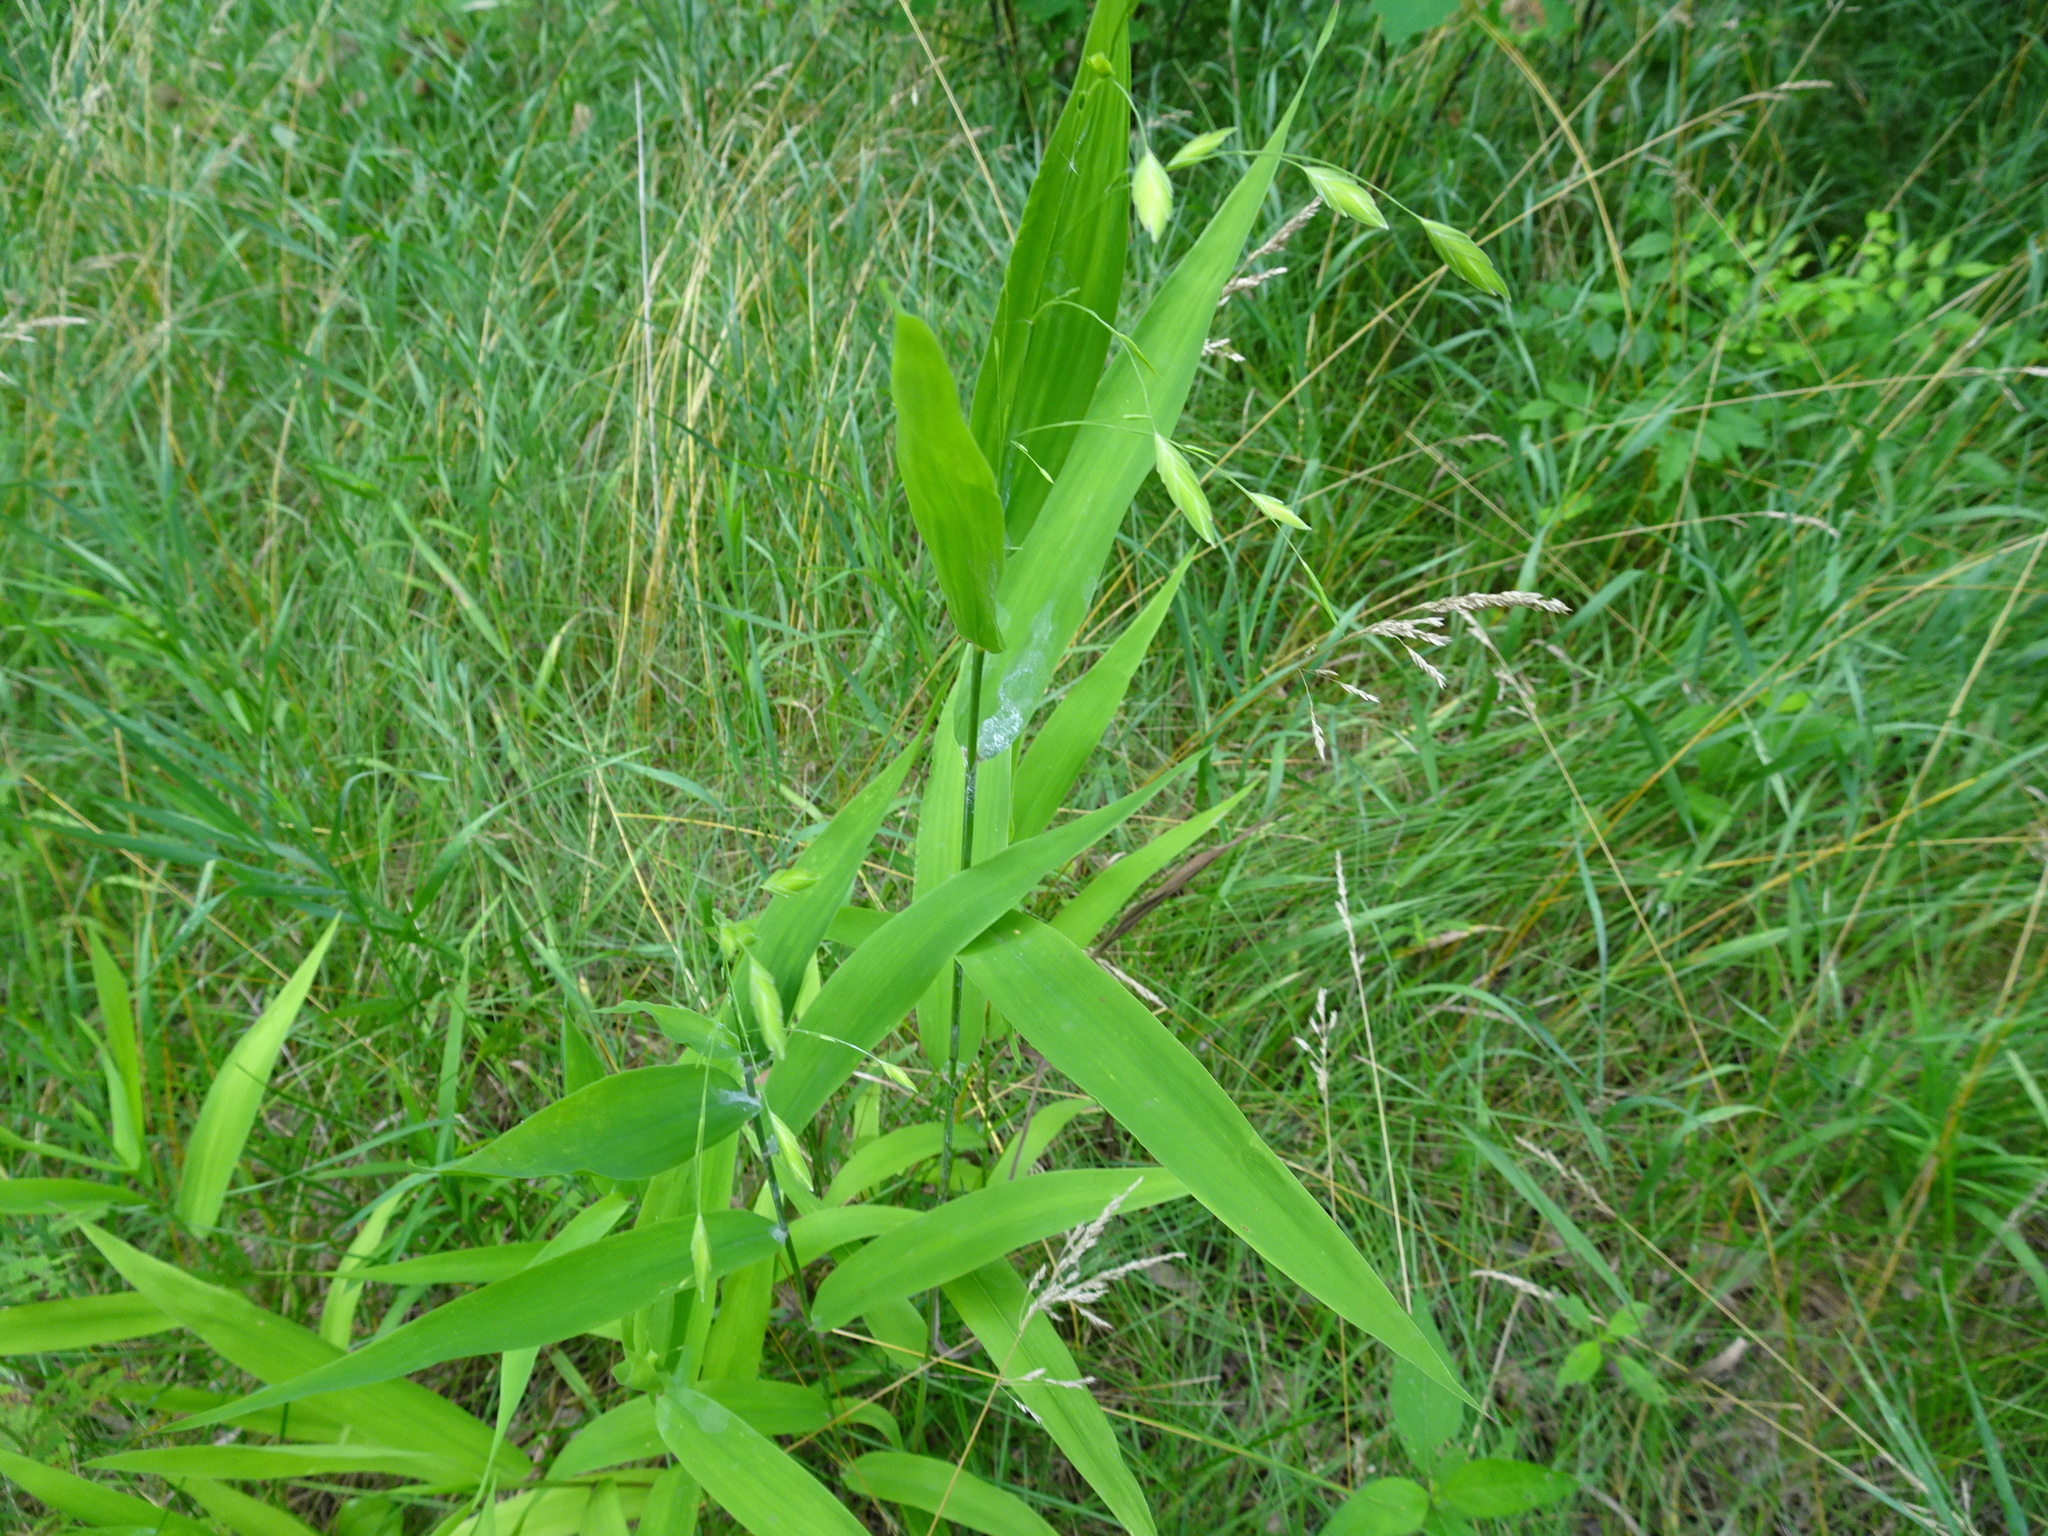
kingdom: Plantae
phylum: Tracheophyta
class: Liliopsida
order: Poales
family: Poaceae
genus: Chasmanthium
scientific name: Chasmanthium latifolium
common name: Broad-leaved chasmanthium
